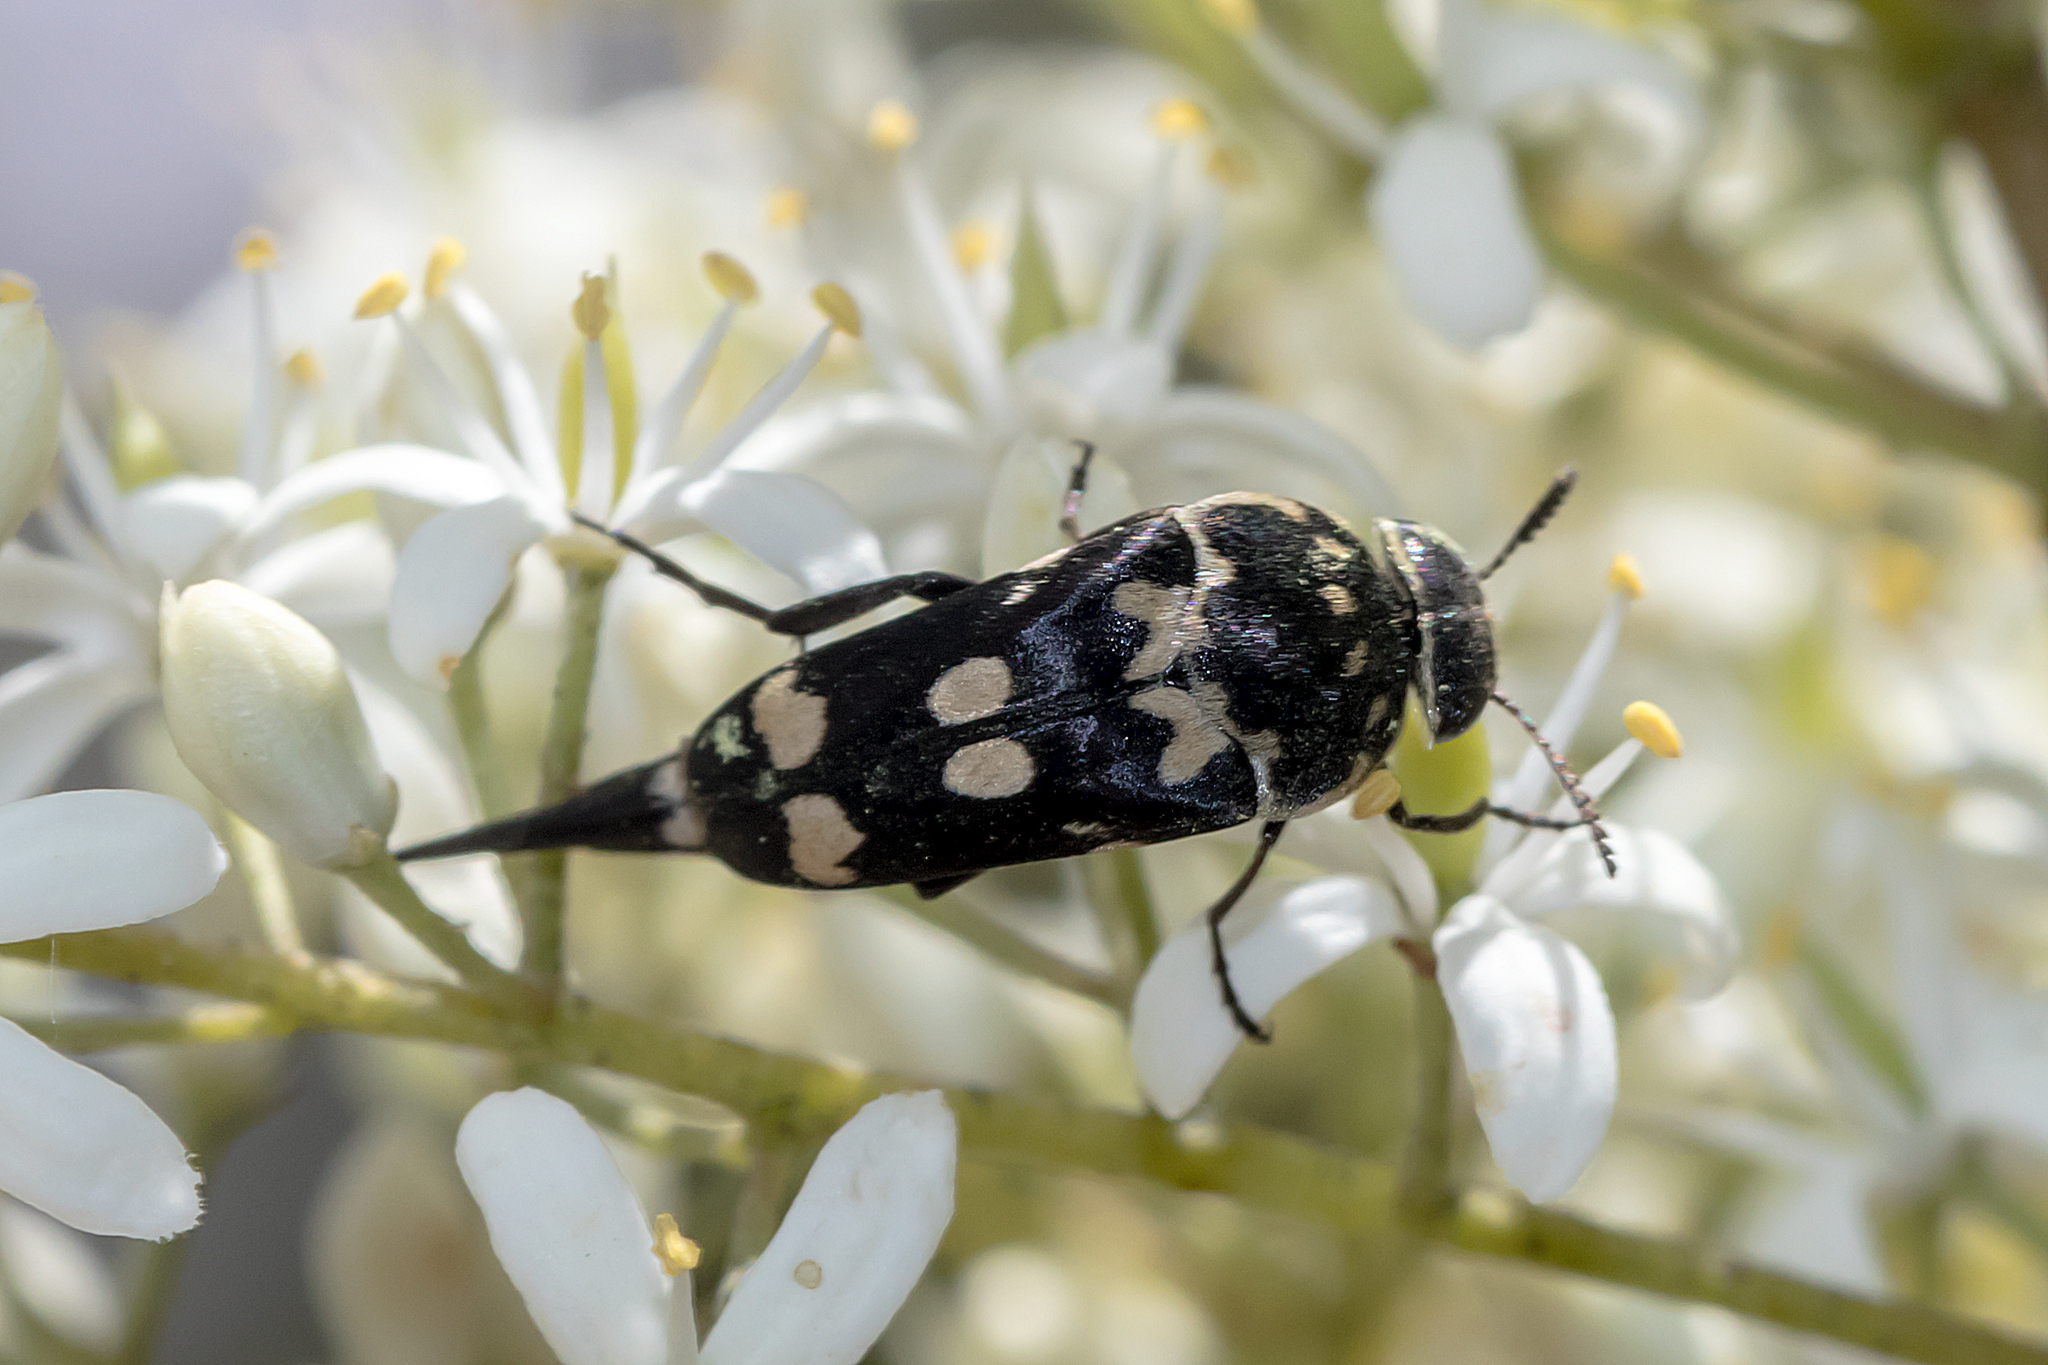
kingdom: Animalia
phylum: Arthropoda
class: Insecta
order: Coleoptera
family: Mordellidae
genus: Hoshihananomia
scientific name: Hoshihananomia
